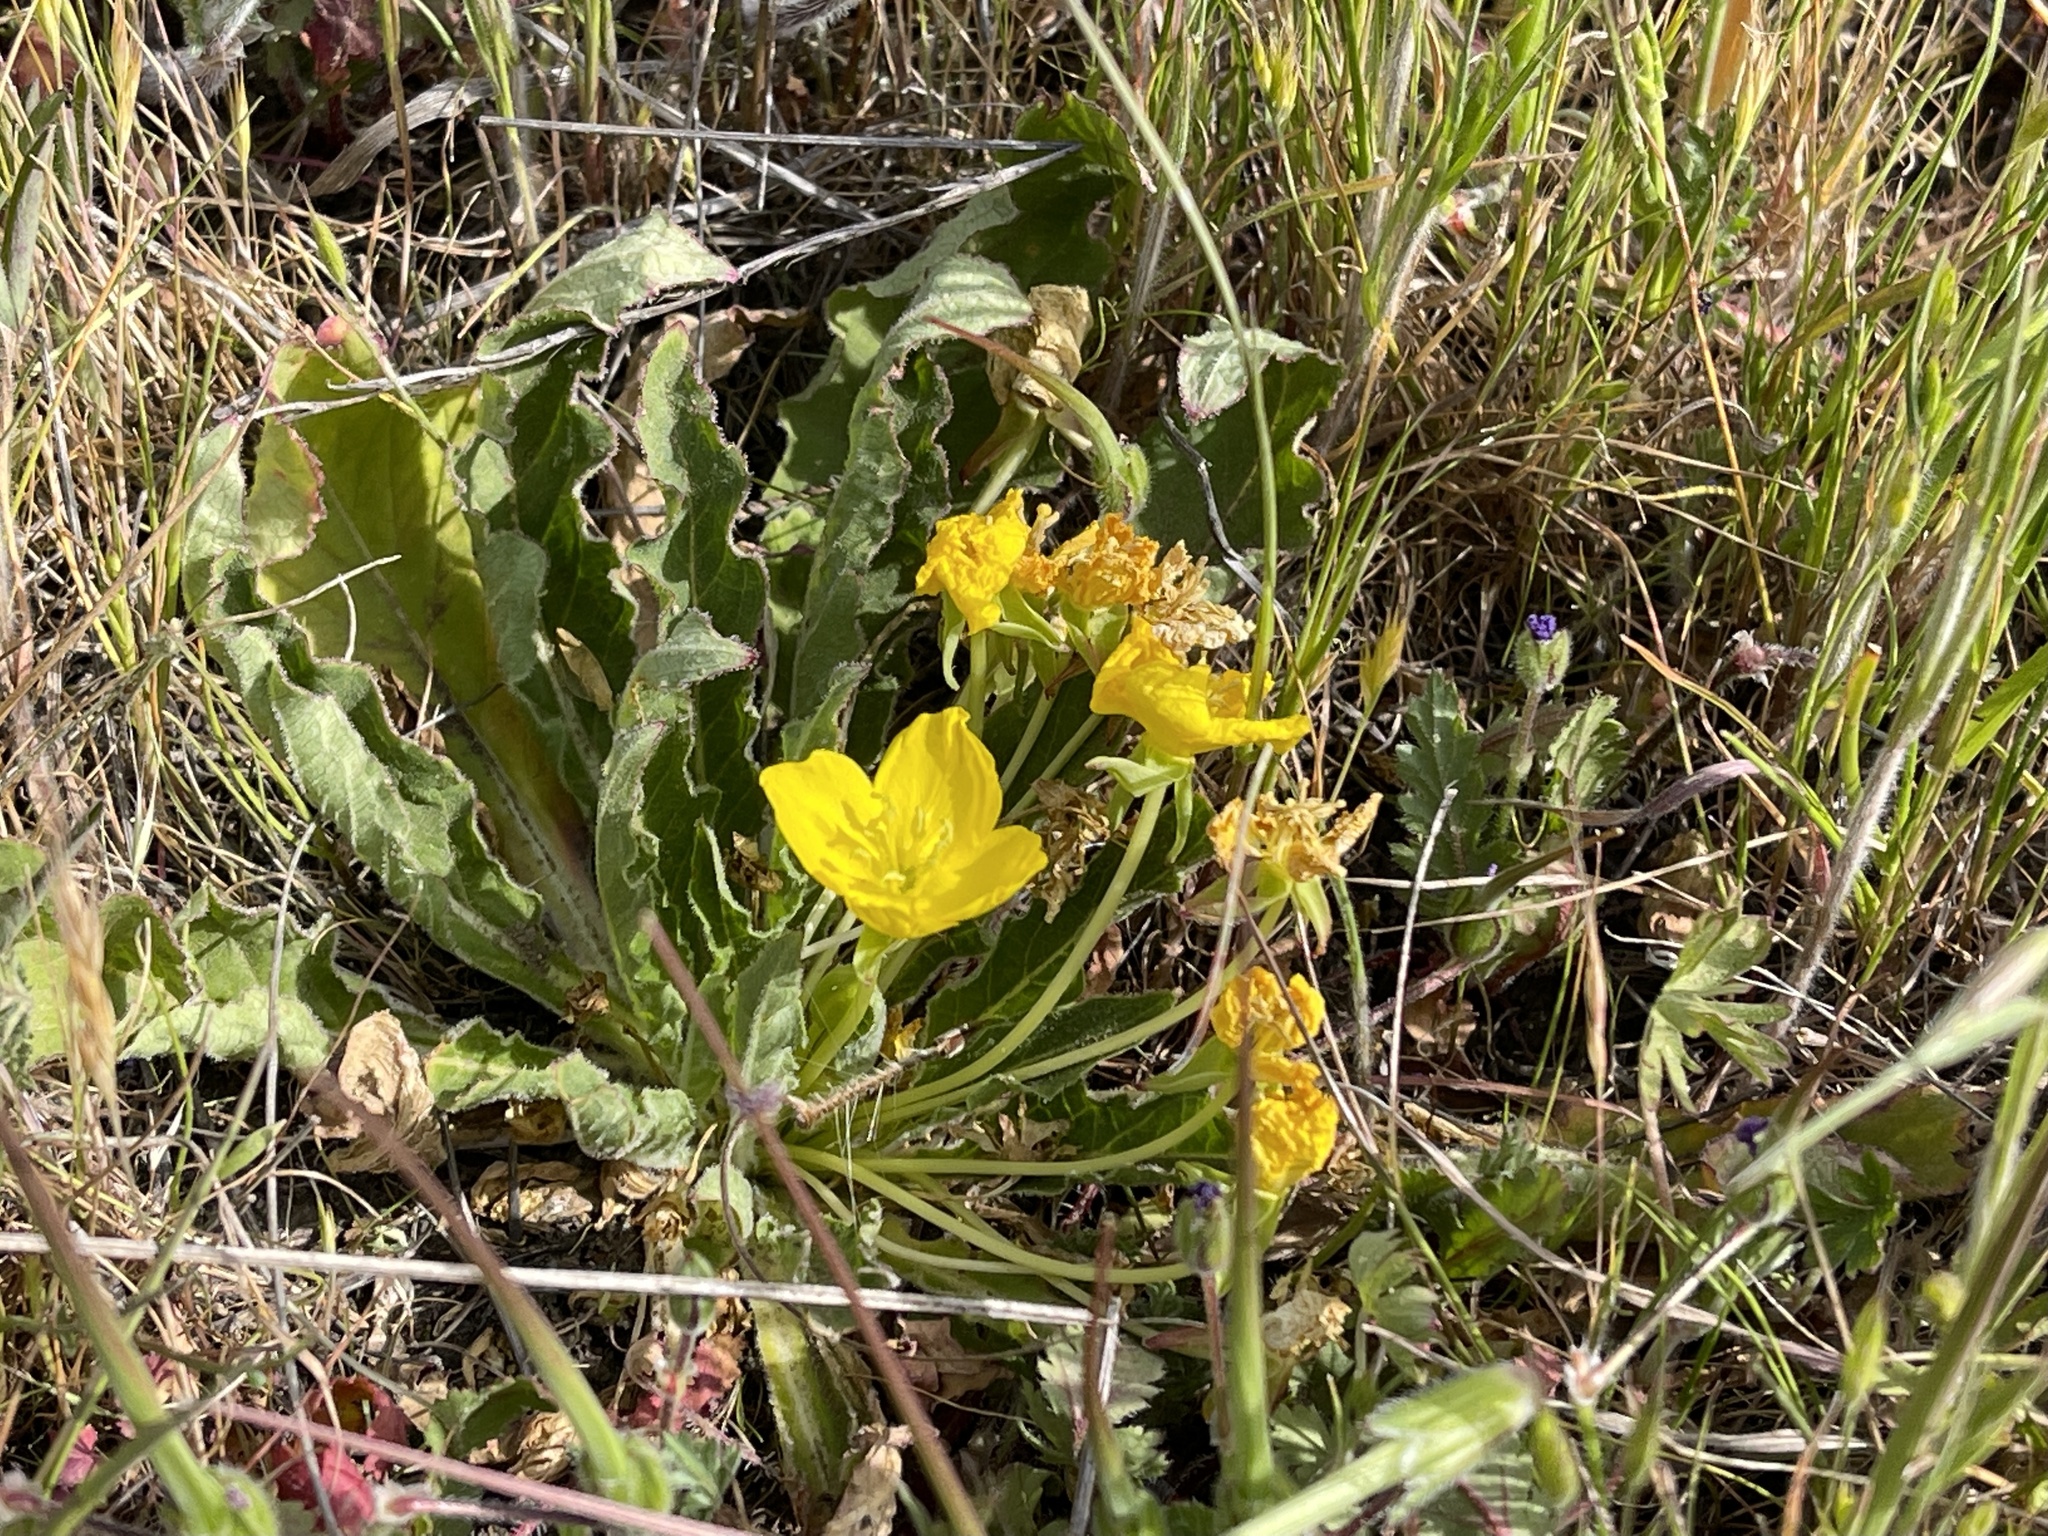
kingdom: Plantae
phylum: Tracheophyta
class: Magnoliopsida
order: Myrtales
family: Onagraceae
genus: Taraxia
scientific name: Taraxia ovata
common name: Goldeneggs
